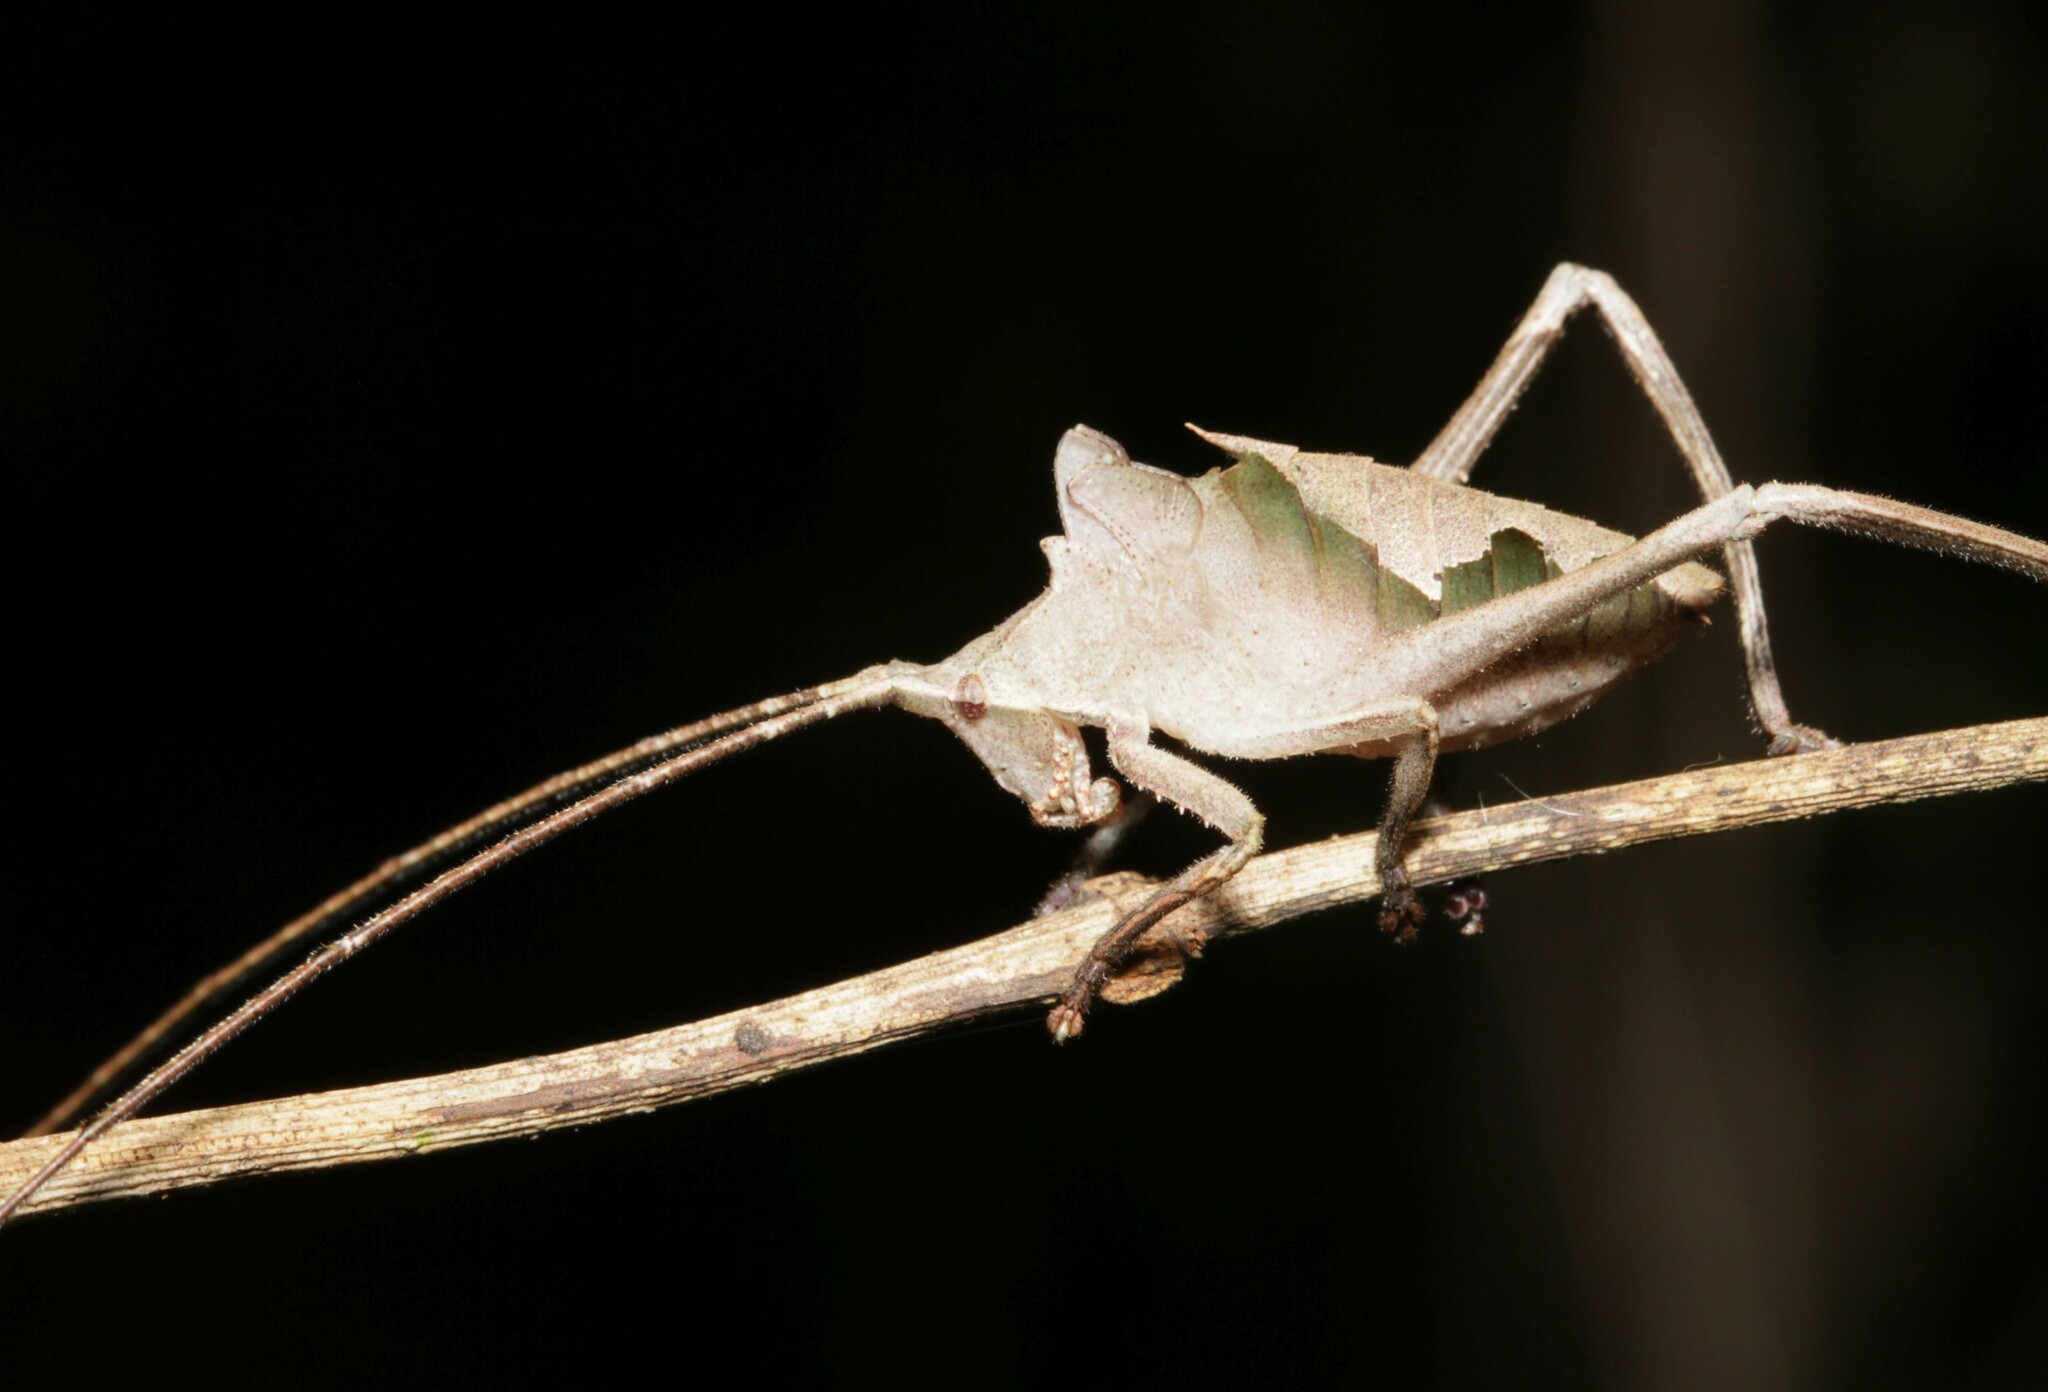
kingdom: Animalia
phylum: Arthropoda
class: Insecta
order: Orthoptera
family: Tettigoniidae
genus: Pterochroza
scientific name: Pterochroza ocellata
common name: Peacock katydid
